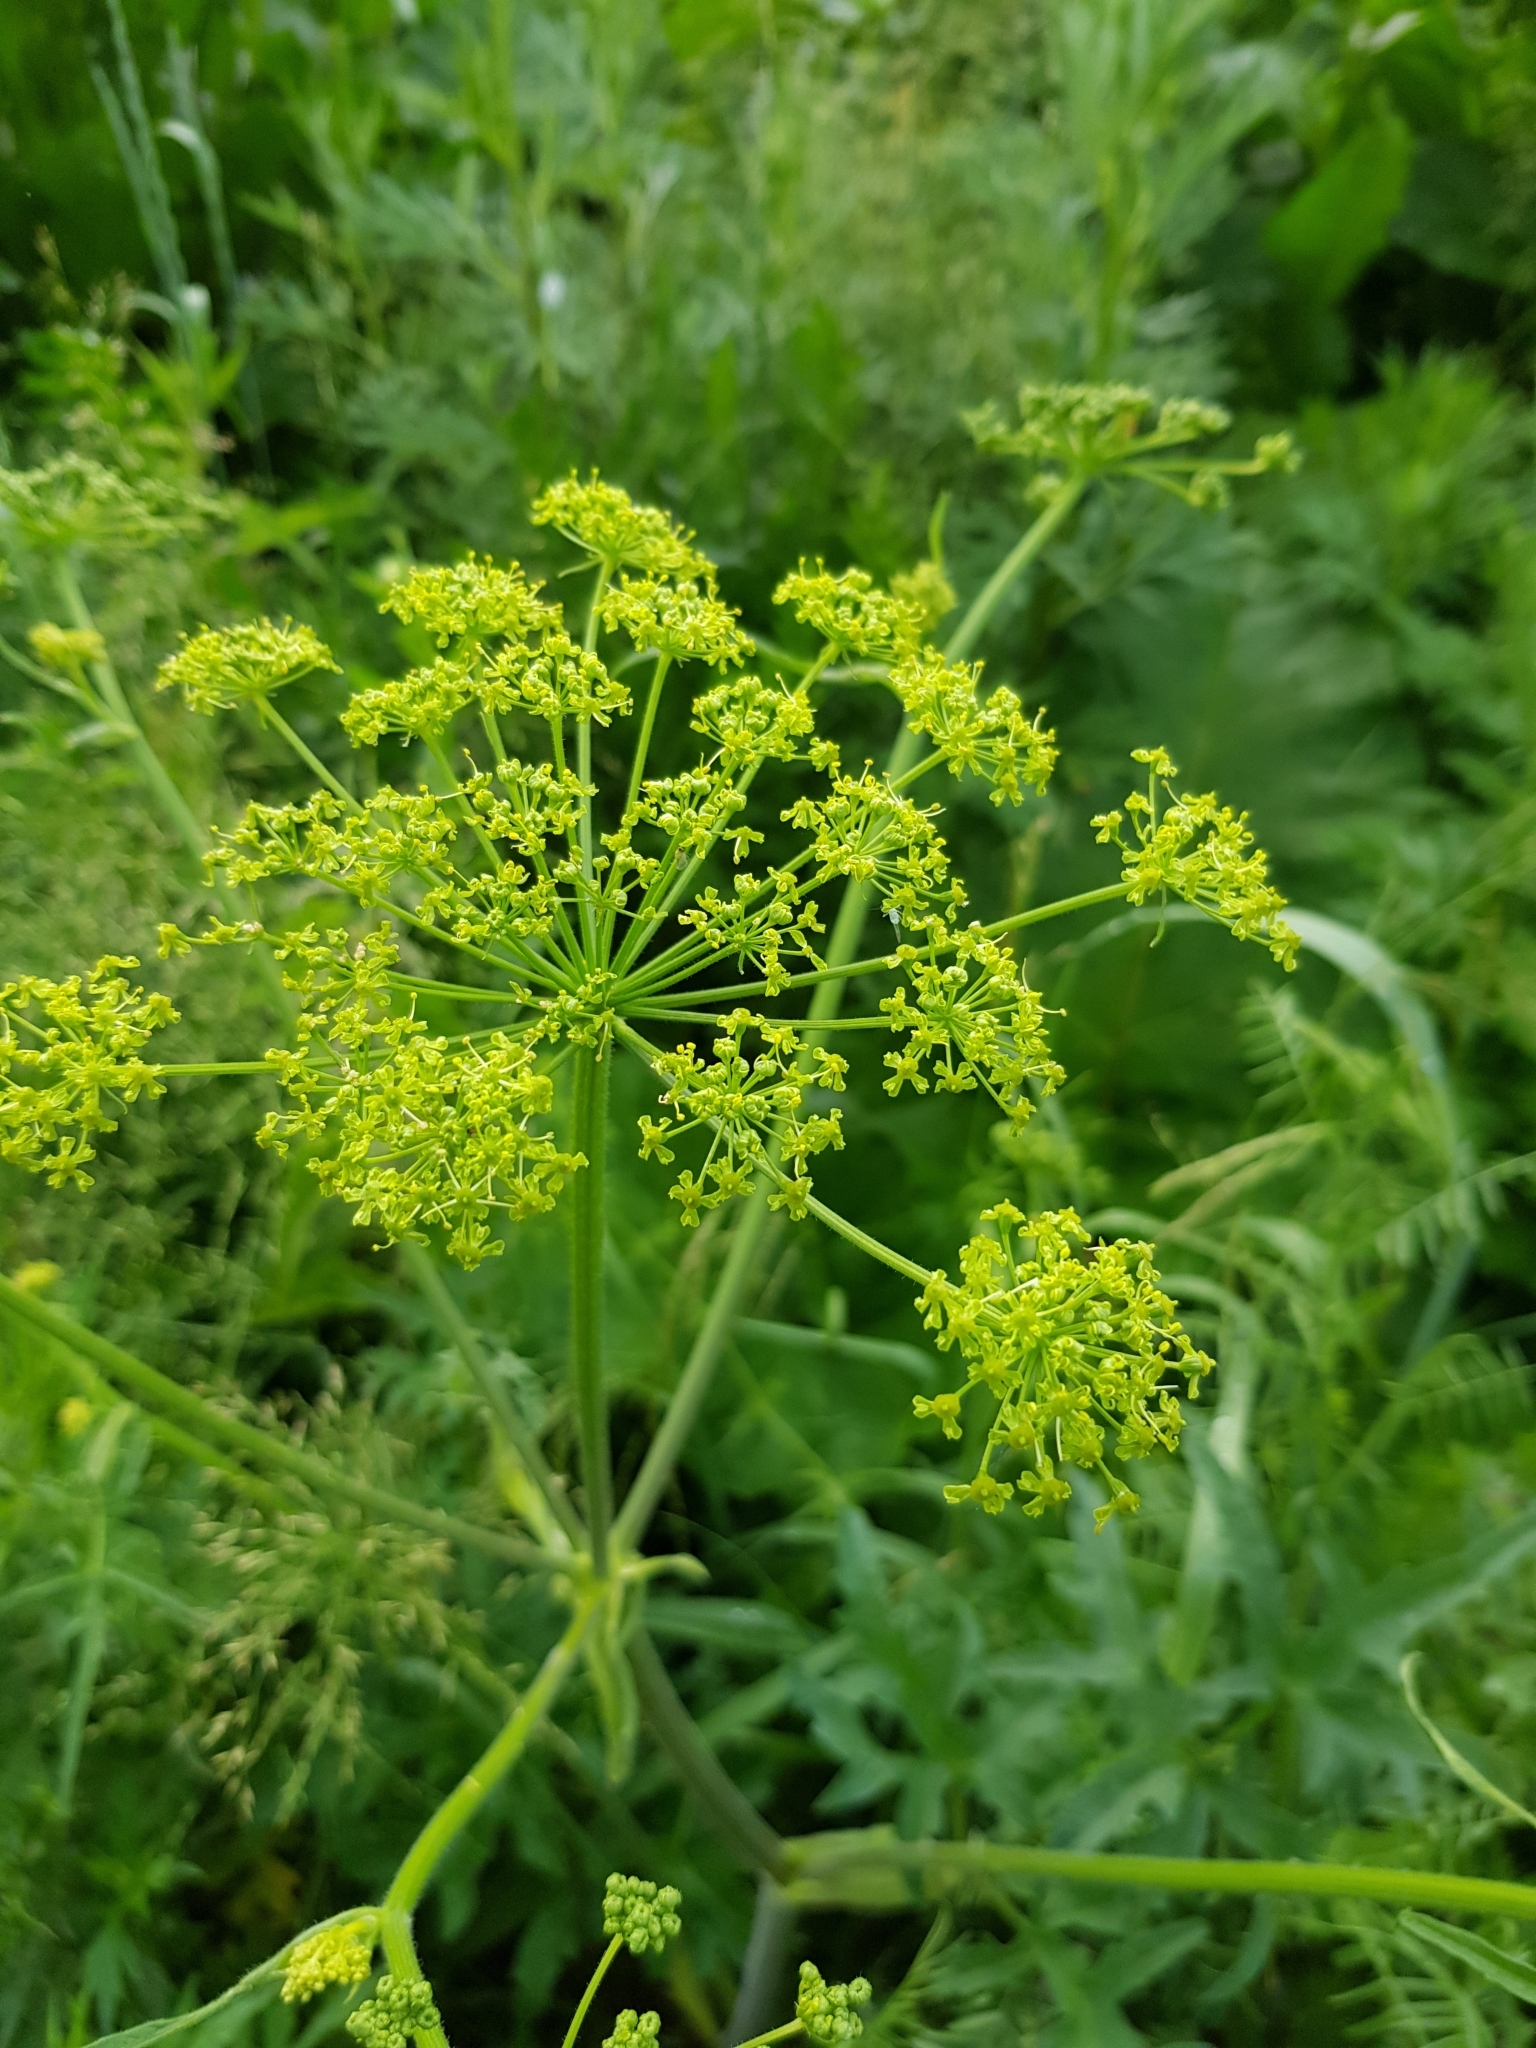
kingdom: Plantae
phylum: Tracheophyta
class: Magnoliopsida
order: Apiales
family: Apiaceae
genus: Heracleum
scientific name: Heracleum sphondylium
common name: Hogweed
